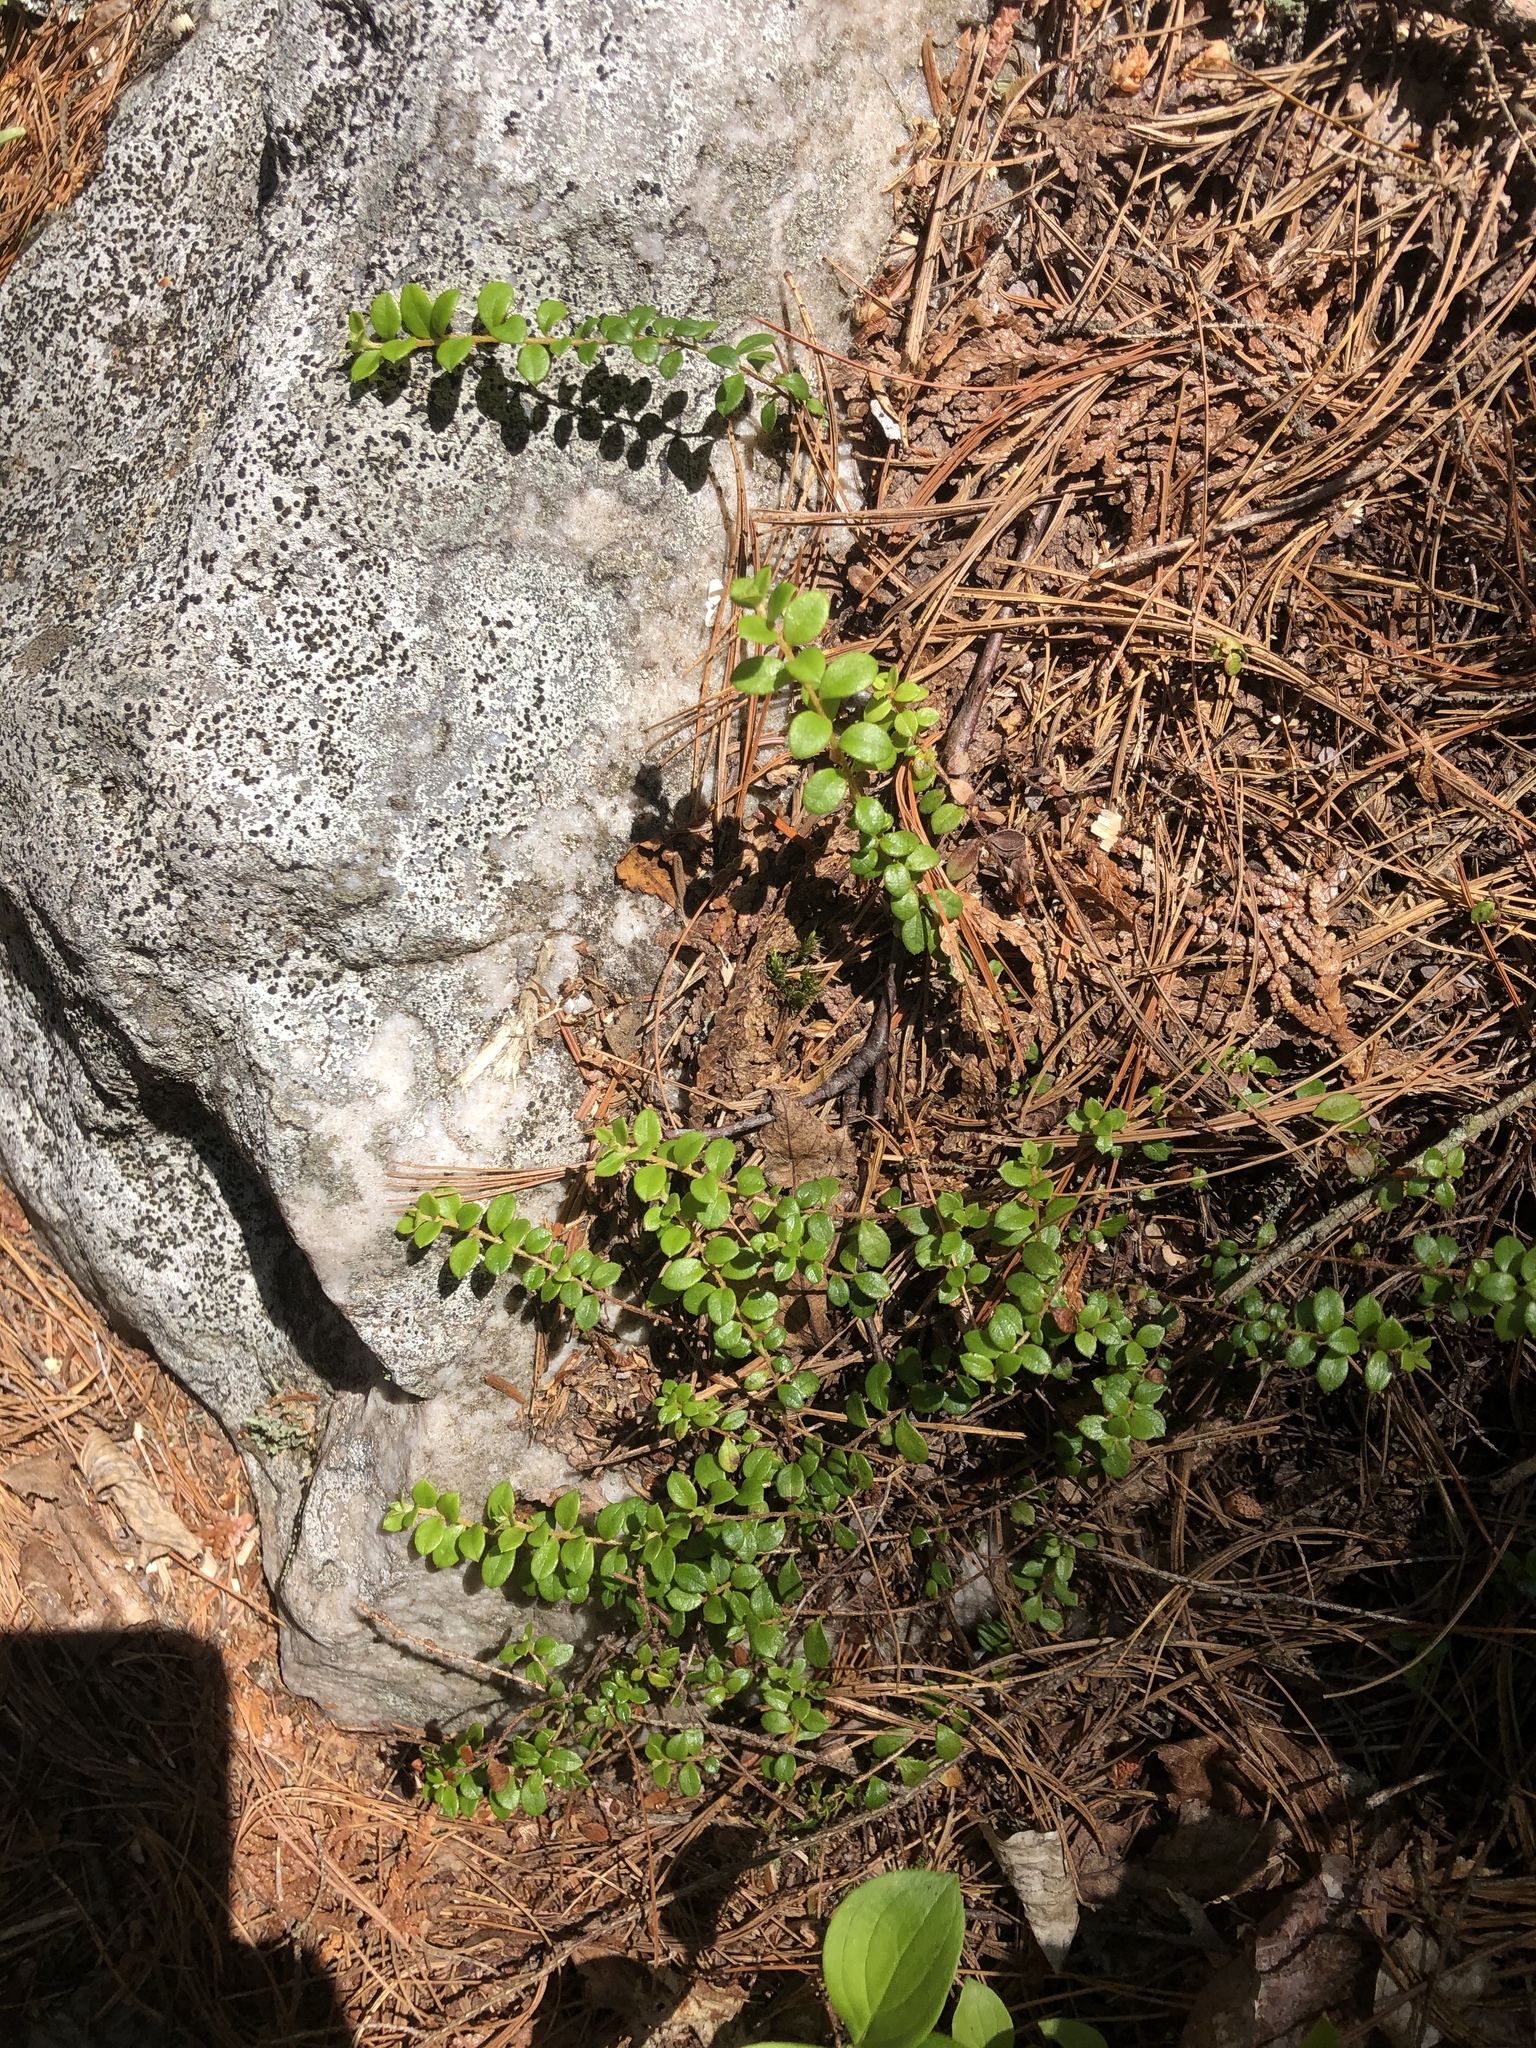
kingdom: Plantae
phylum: Tracheophyta
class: Magnoliopsida
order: Ericales
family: Ericaceae
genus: Gaultheria
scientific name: Gaultheria hispidula
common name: Cancer wintergreen
